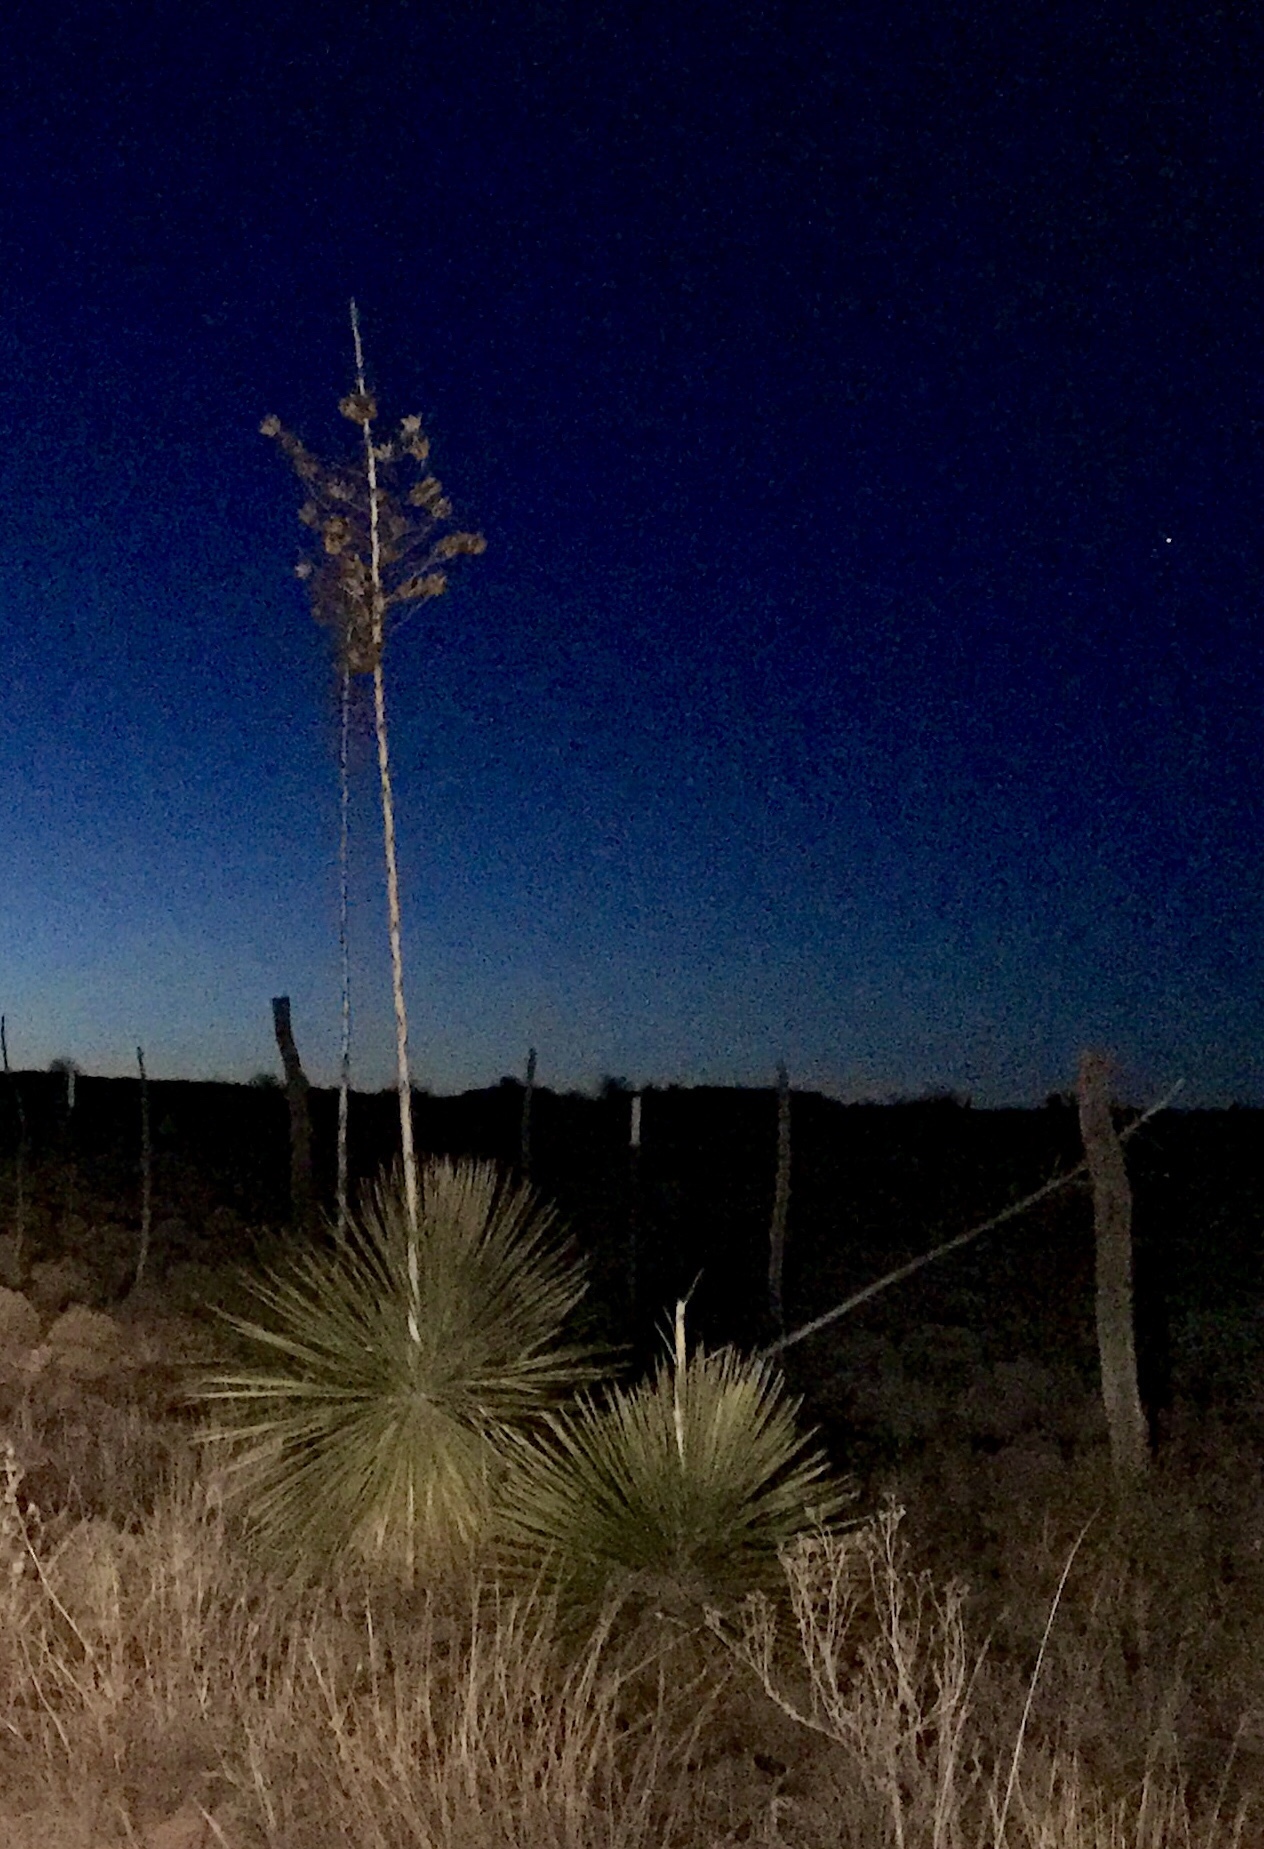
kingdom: Plantae
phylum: Tracheophyta
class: Liliopsida
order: Asparagales
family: Asparagaceae
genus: Yucca
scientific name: Yucca elata
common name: Palmella
